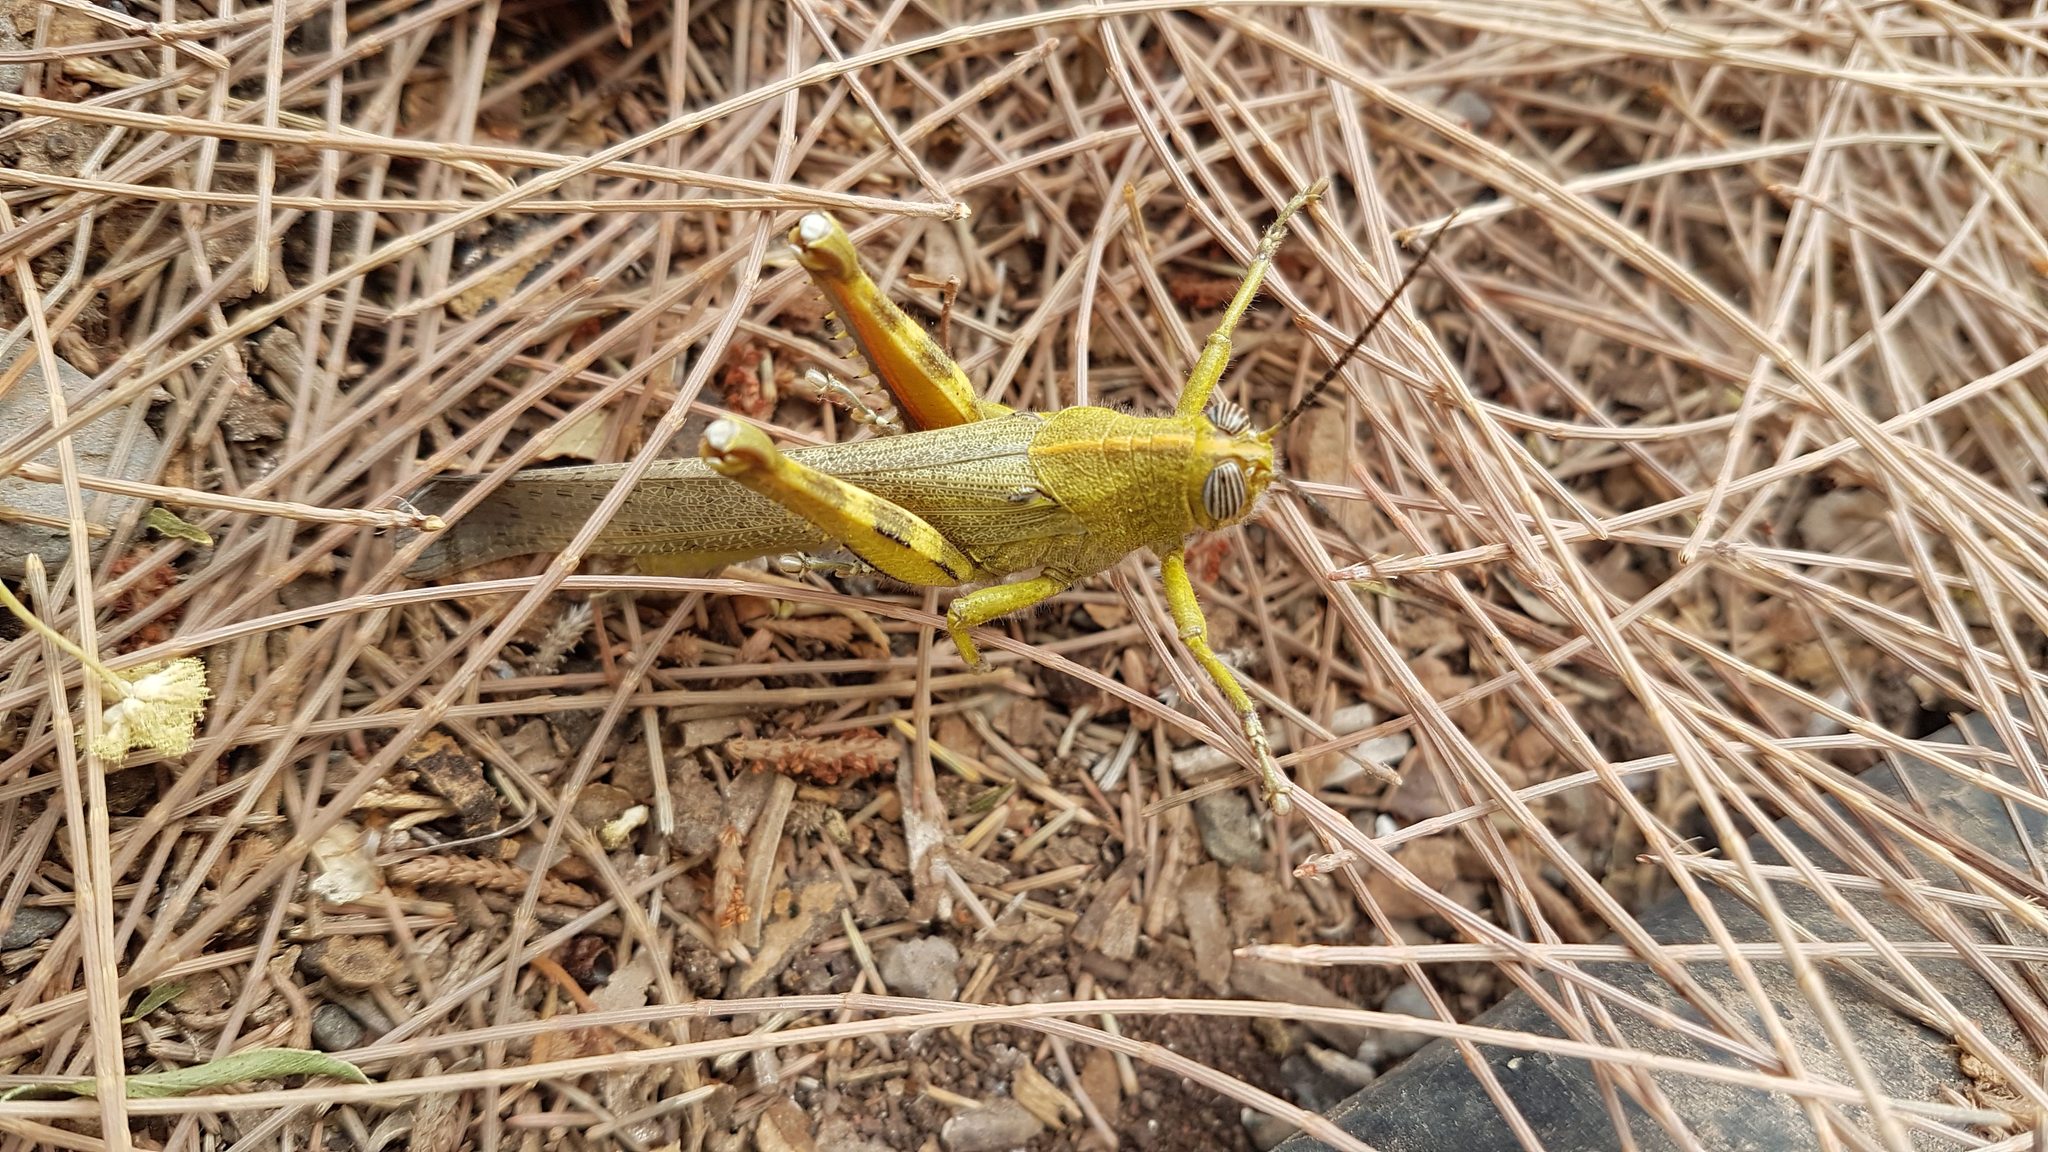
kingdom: Animalia
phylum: Arthropoda
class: Insecta
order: Orthoptera
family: Acrididae
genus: Anacridium
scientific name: Anacridium aegyptium
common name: Egyptian grasshopper
